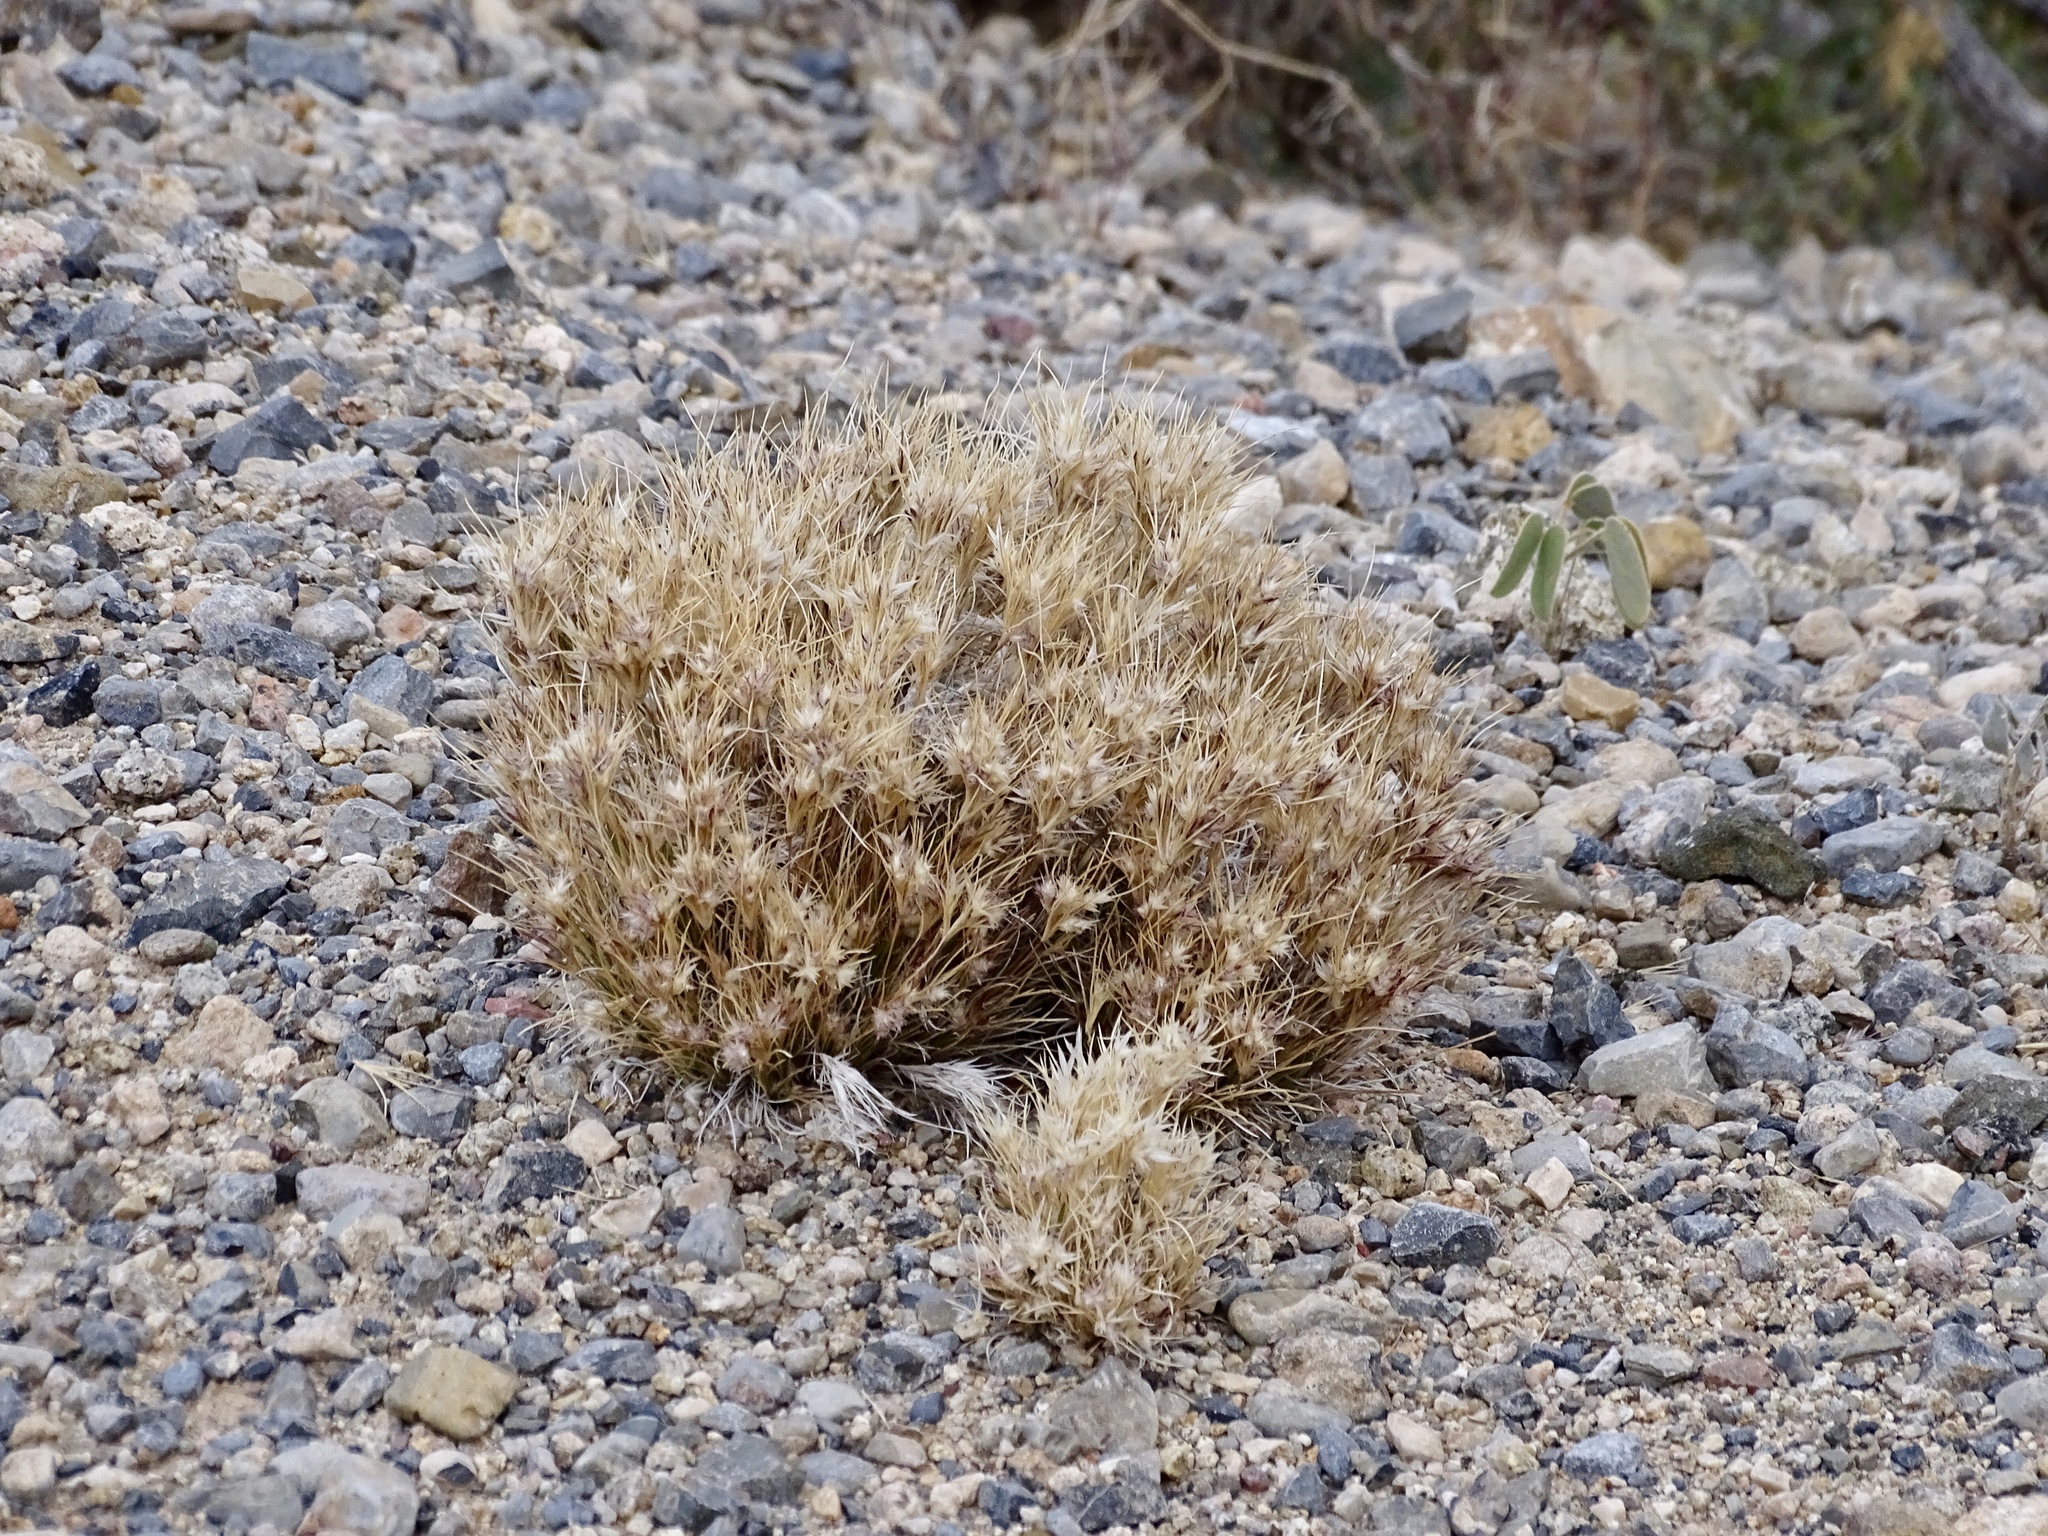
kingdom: Plantae
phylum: Tracheophyta
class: Liliopsida
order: Poales
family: Poaceae
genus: Dasyochloa
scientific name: Dasyochloa pulchella
